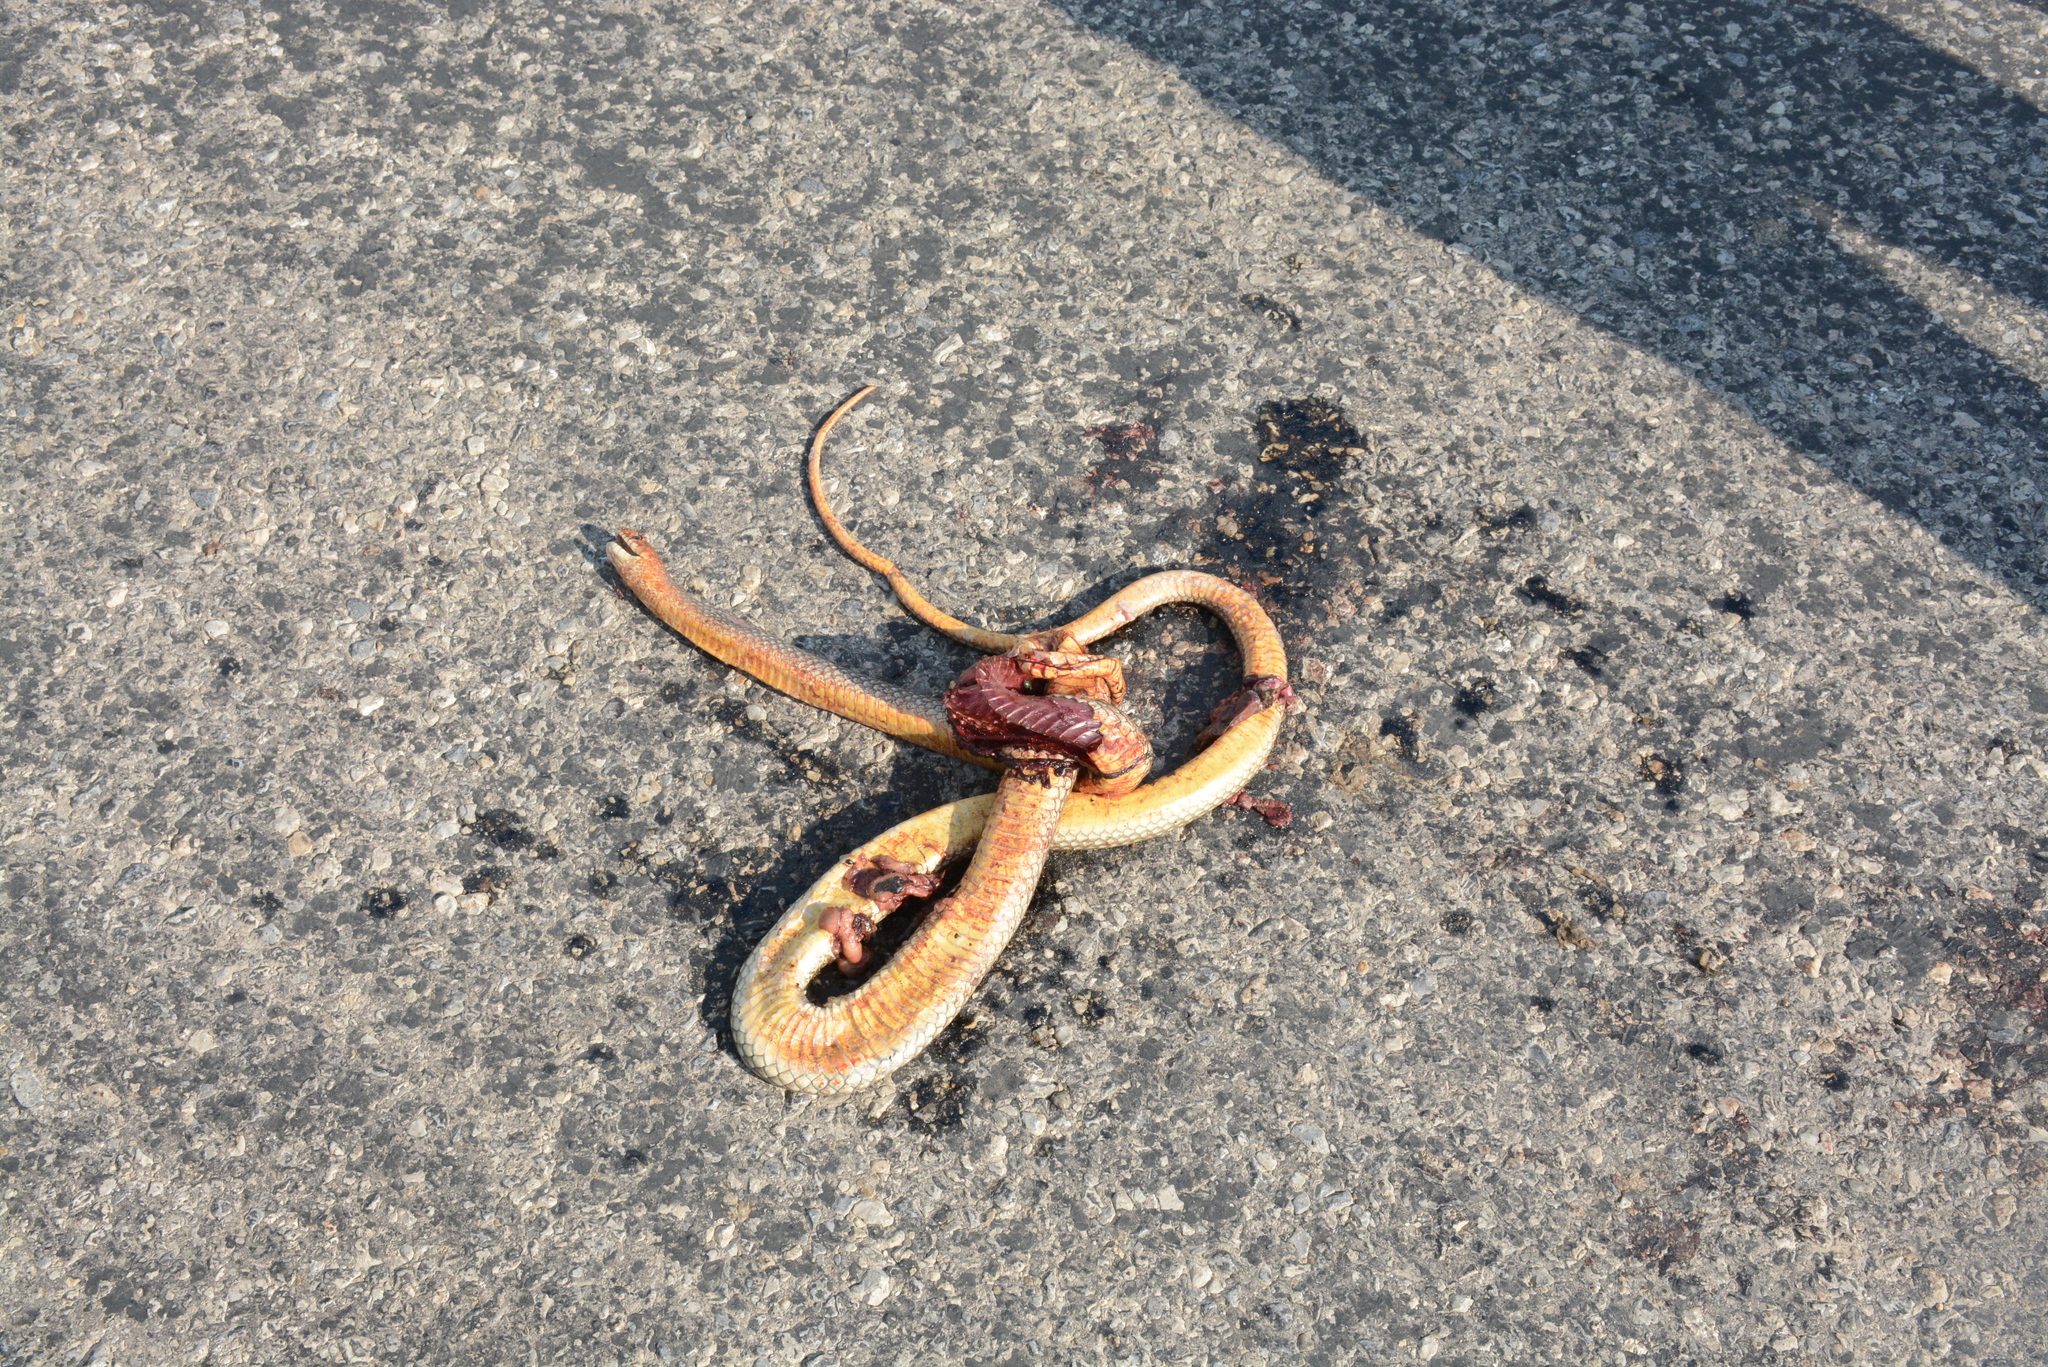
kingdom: Animalia
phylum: Chordata
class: Squamata
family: Colubridae
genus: Dolichophis
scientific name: Dolichophis caspius
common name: Large whip snake
